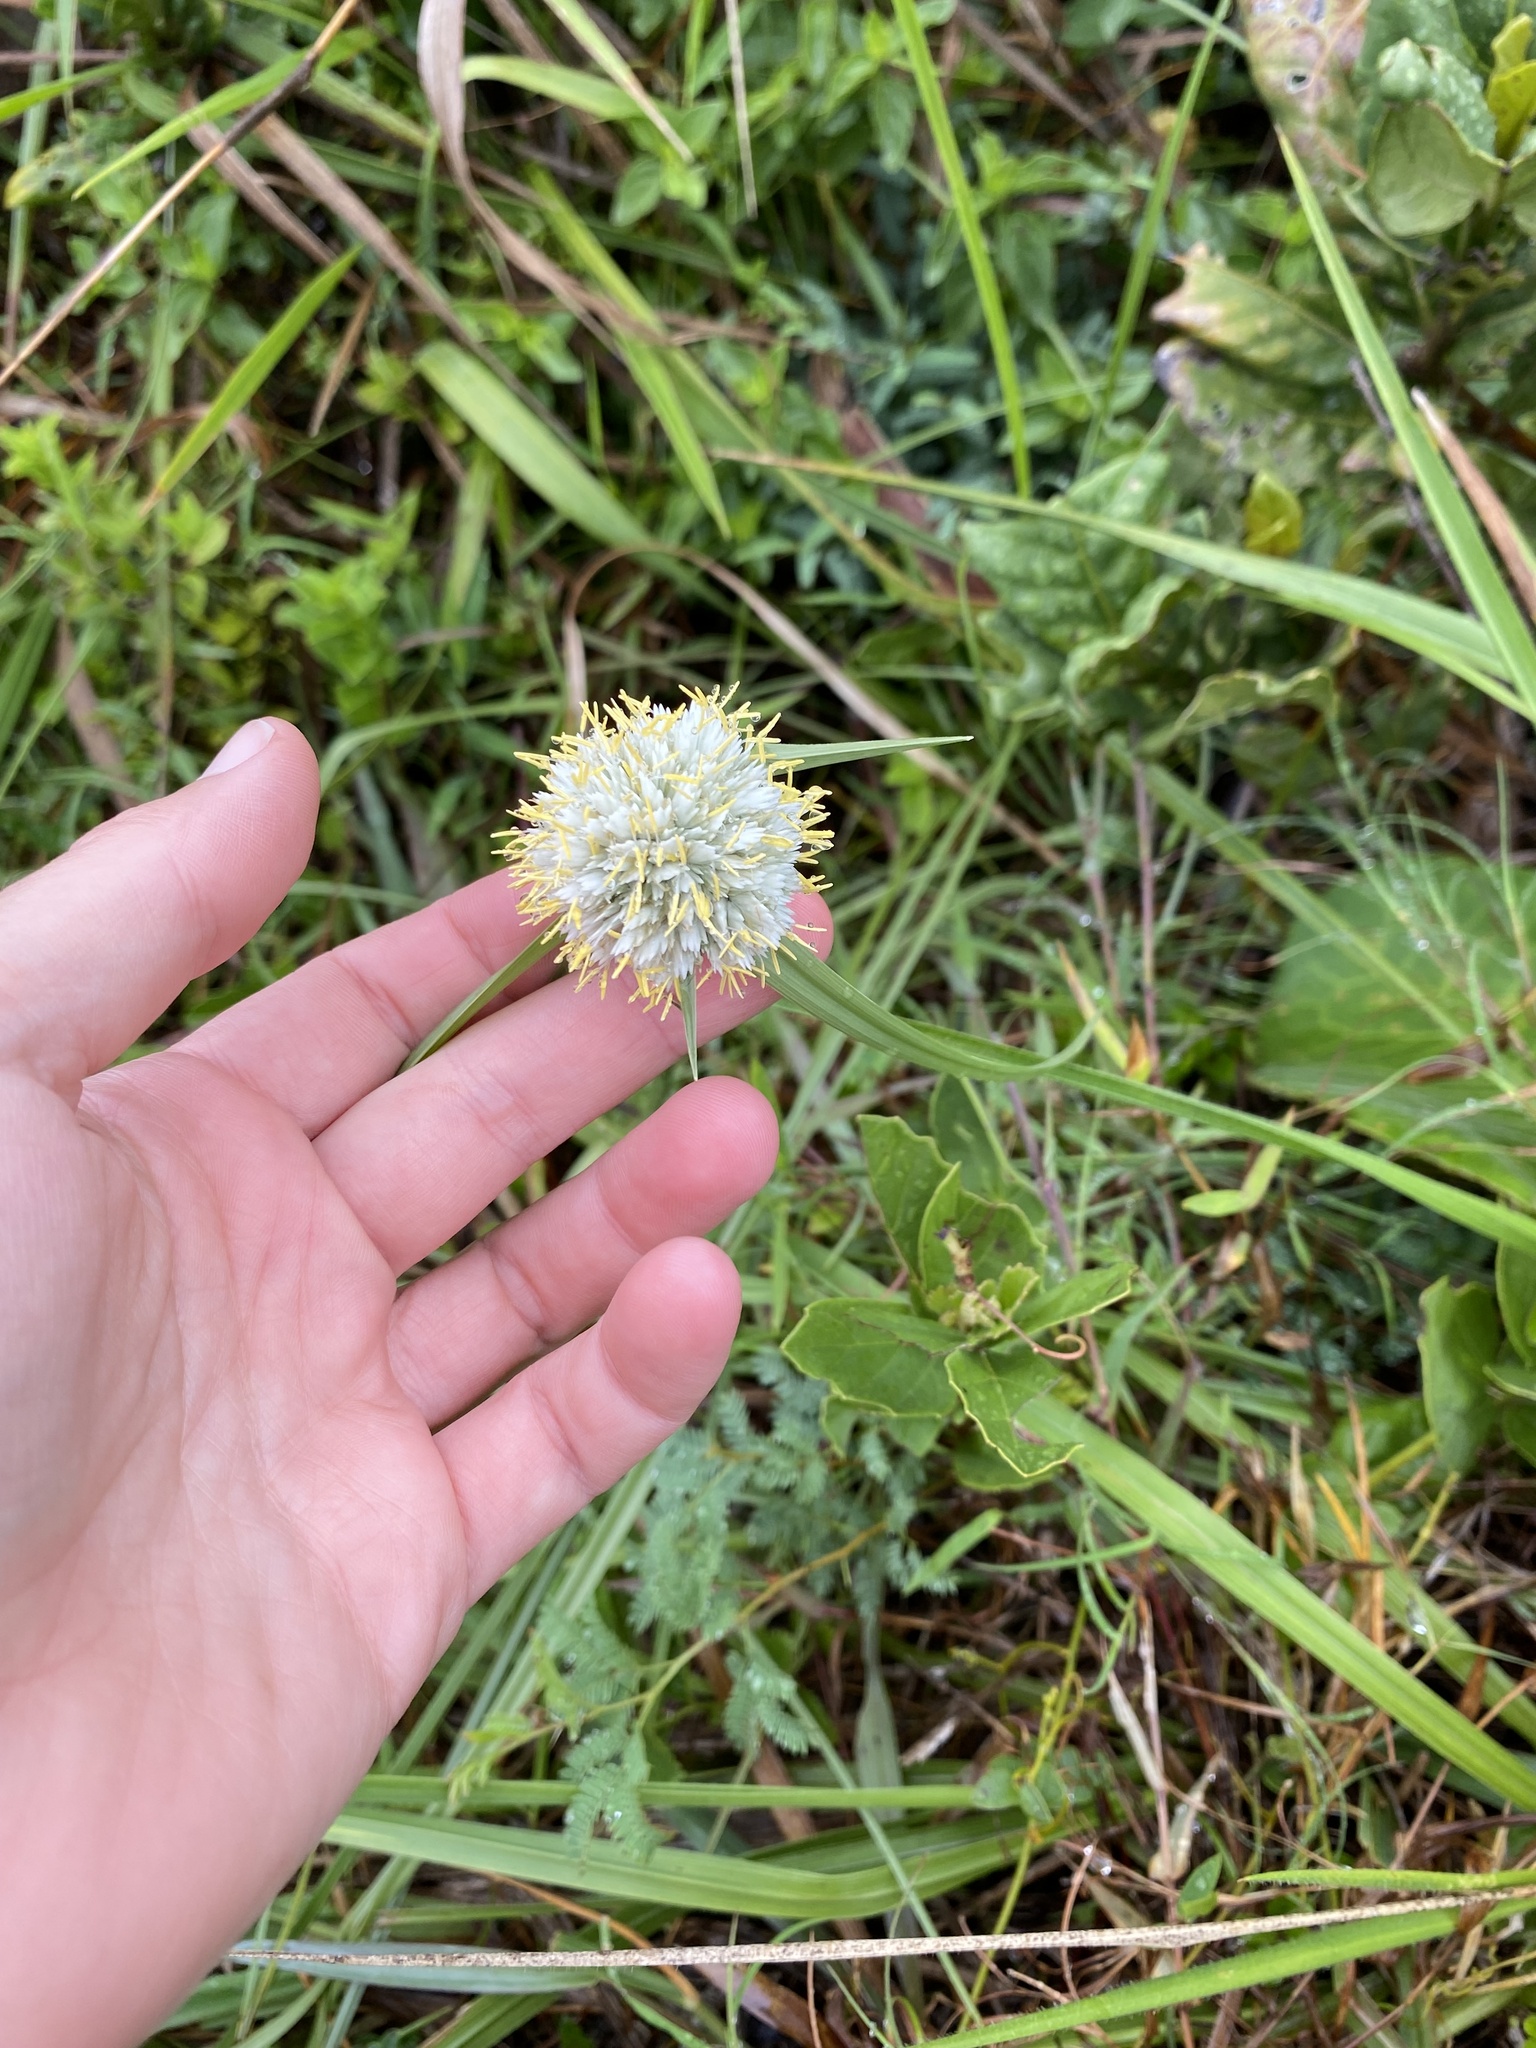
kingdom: Plantae
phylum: Tracheophyta
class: Liliopsida
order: Poales
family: Cyperaceae
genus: Cyperus
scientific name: Cyperus niveus
